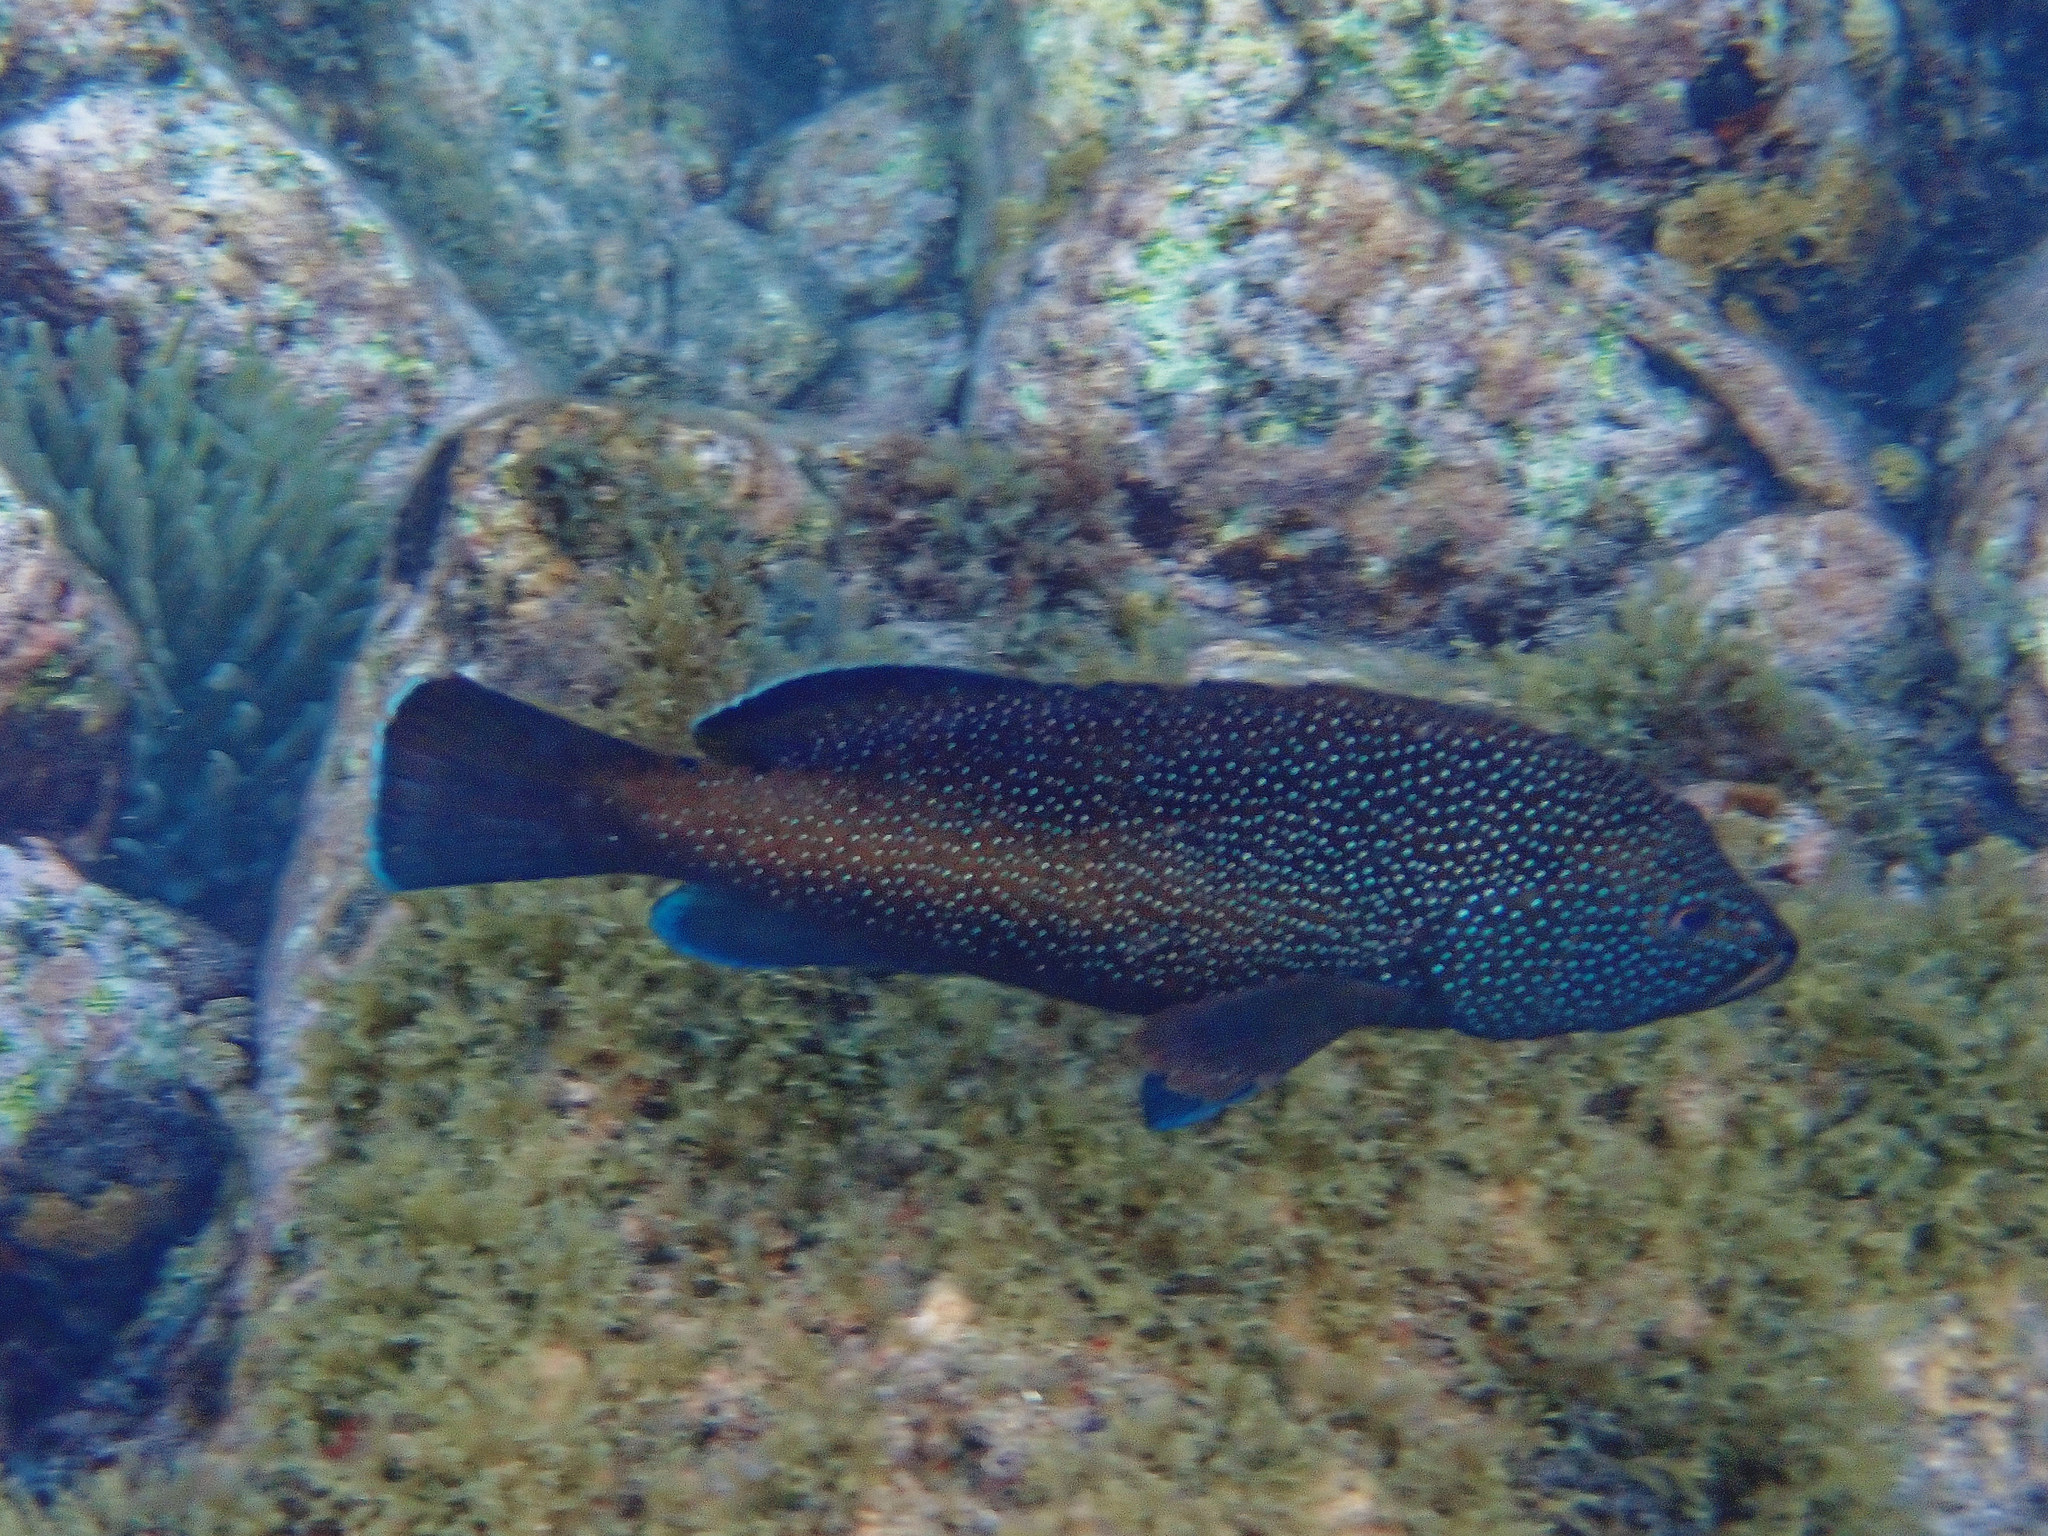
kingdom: Animalia
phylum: Chordata
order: Perciformes
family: Serranidae
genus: Cephalopholis
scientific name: Cephalopholis fulva
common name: Butterfish
